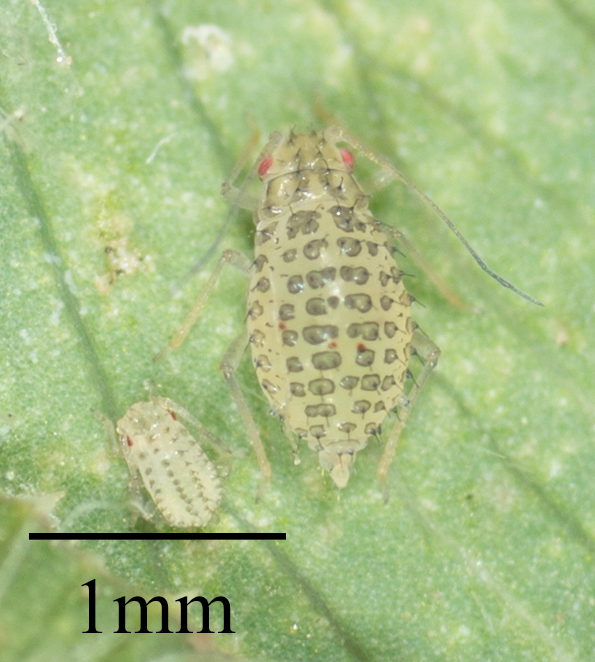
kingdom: Animalia
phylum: Arthropoda
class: Insecta
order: Hemiptera
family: Aphididae
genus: Therioaphis
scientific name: Therioaphis trifolii
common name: Spotted alfalfa aphid
